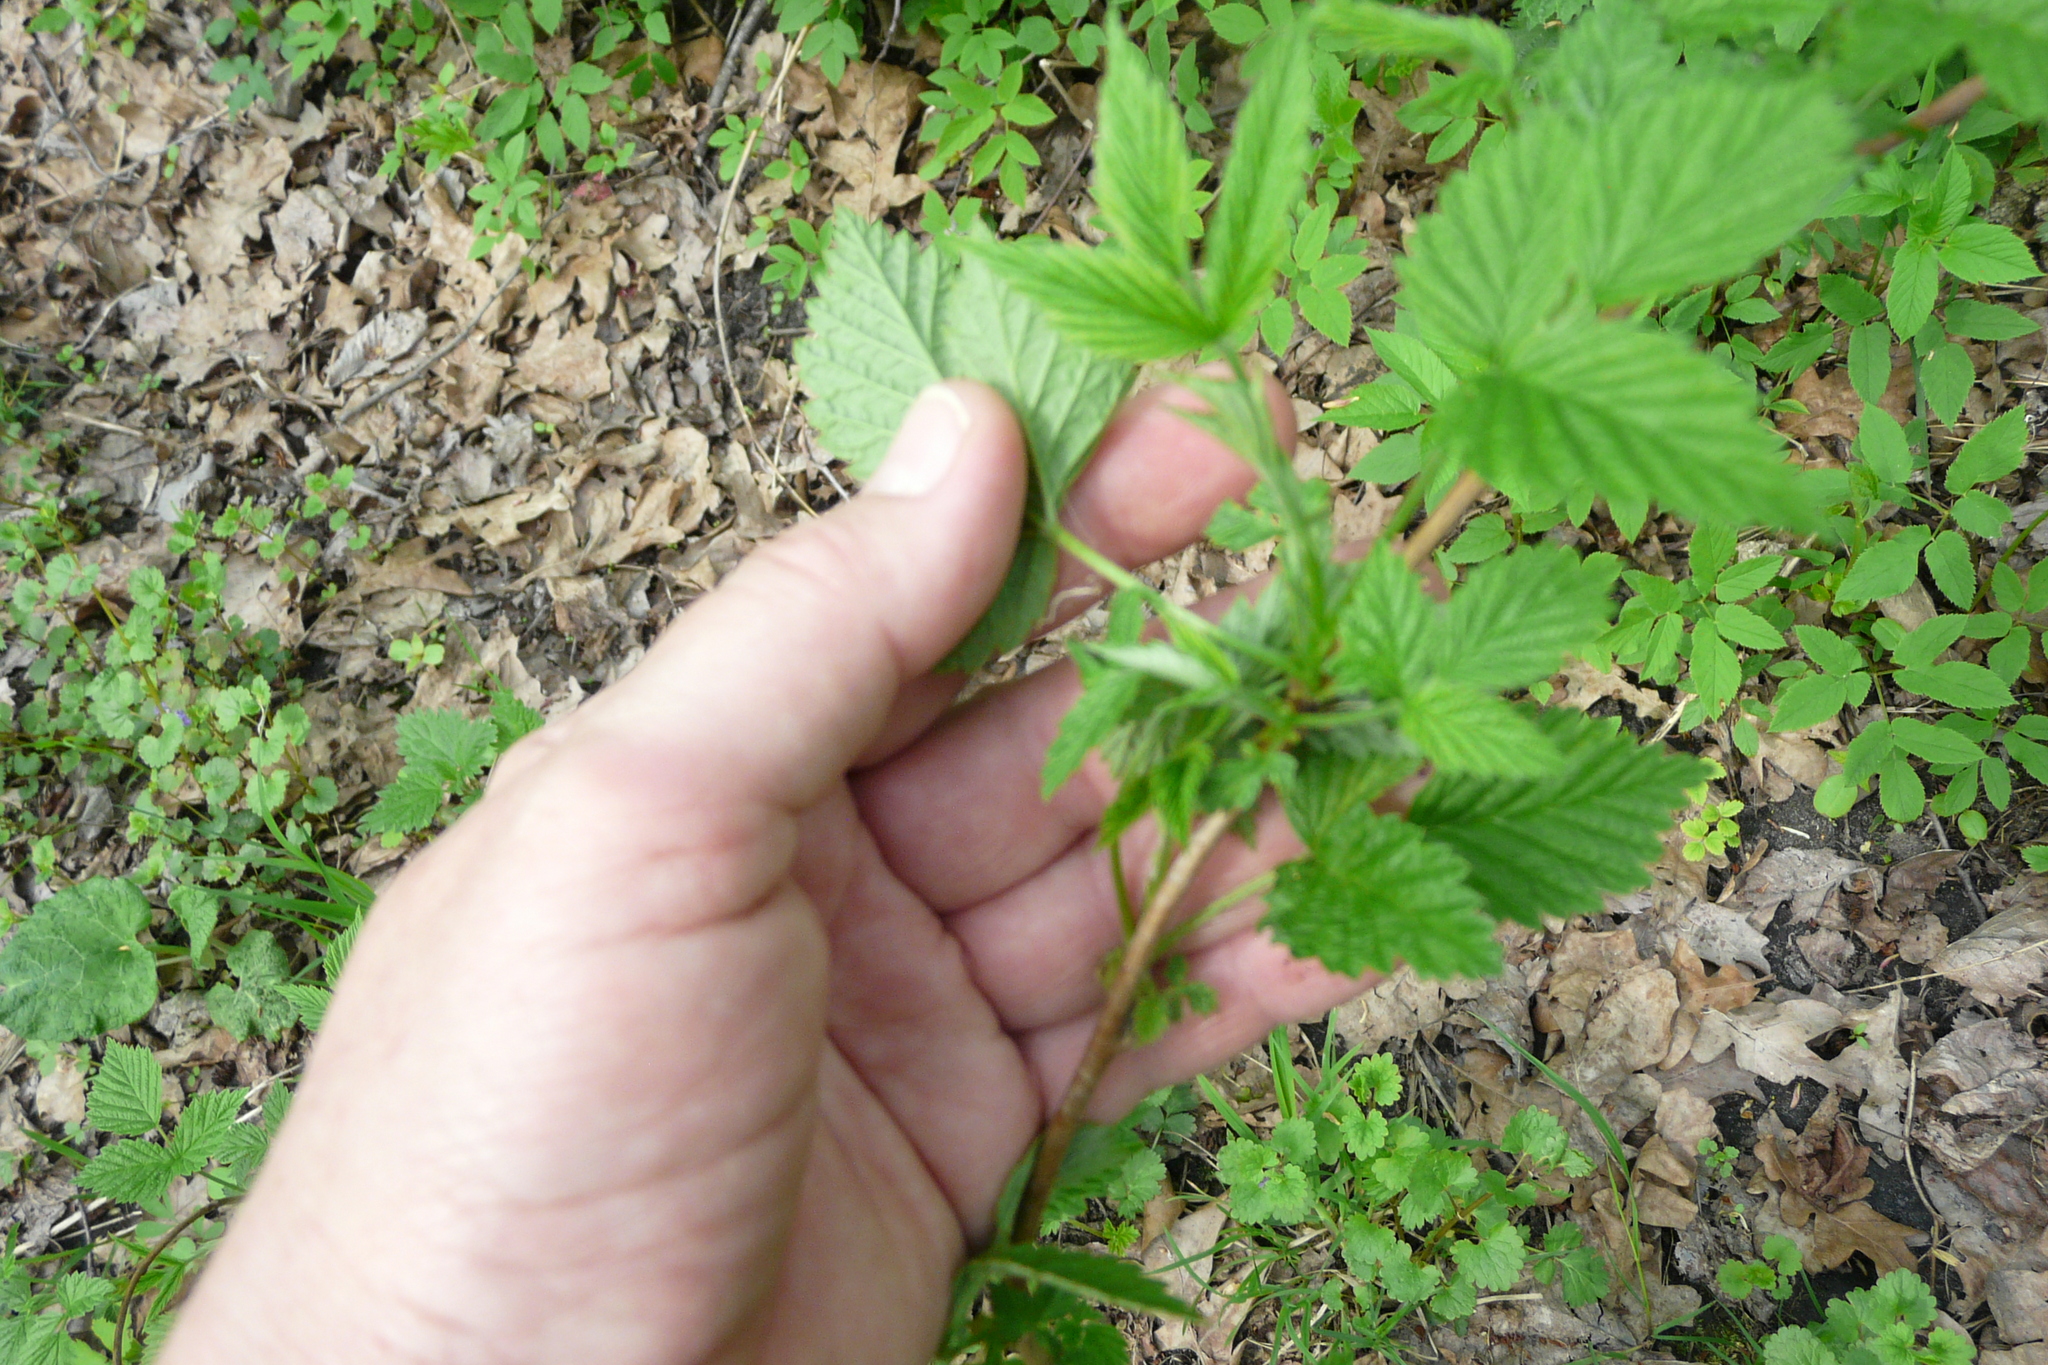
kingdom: Plantae
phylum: Tracheophyta
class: Magnoliopsida
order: Rosales
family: Rosaceae
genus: Rubus
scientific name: Rubus idaeus
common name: Raspberry
